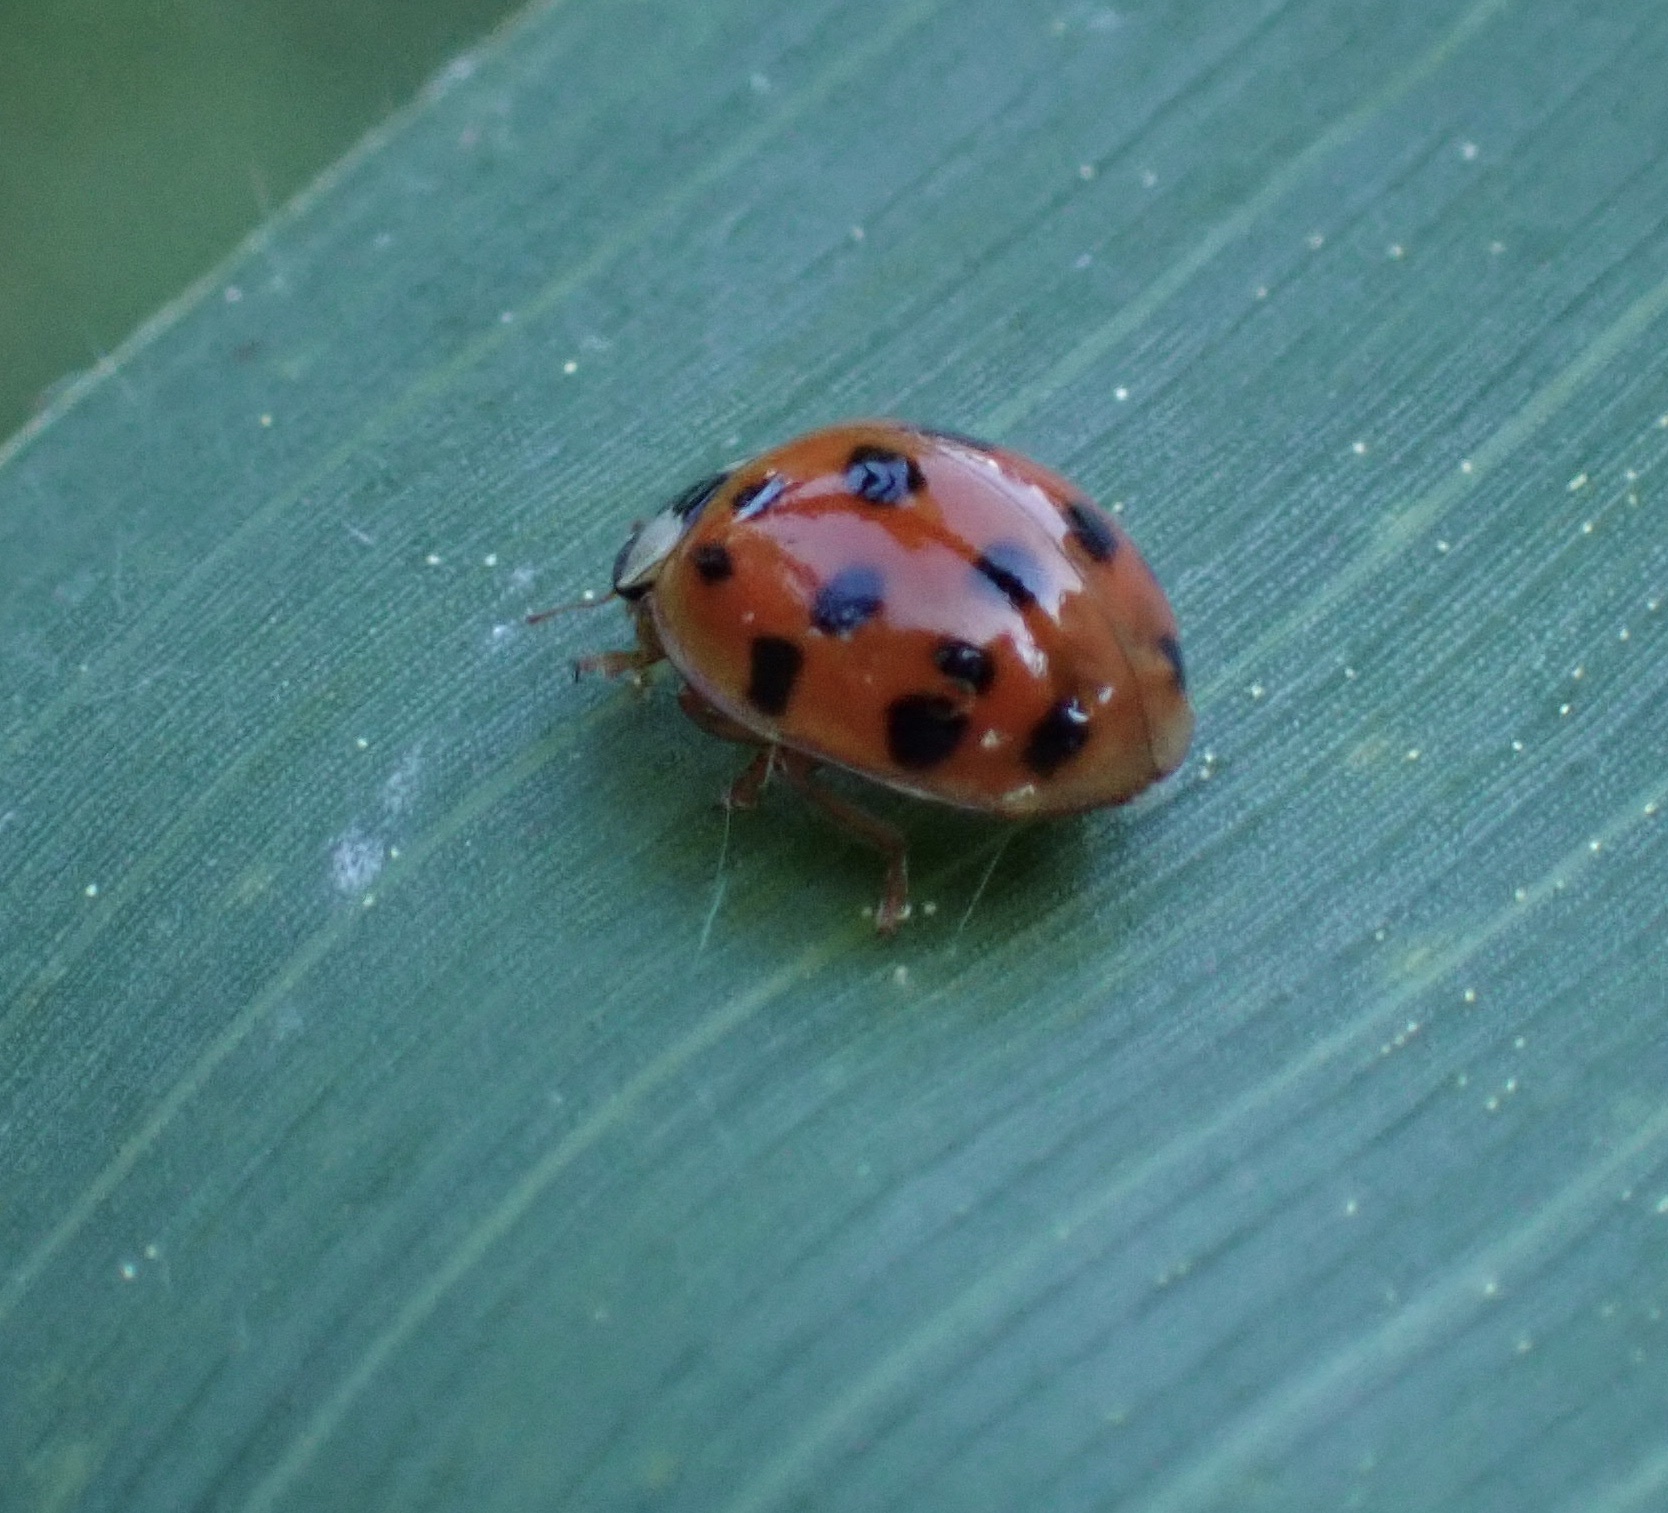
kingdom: Animalia
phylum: Arthropoda
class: Insecta
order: Coleoptera
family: Coccinellidae
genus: Harmonia
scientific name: Harmonia axyridis
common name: Harlequin ladybird
